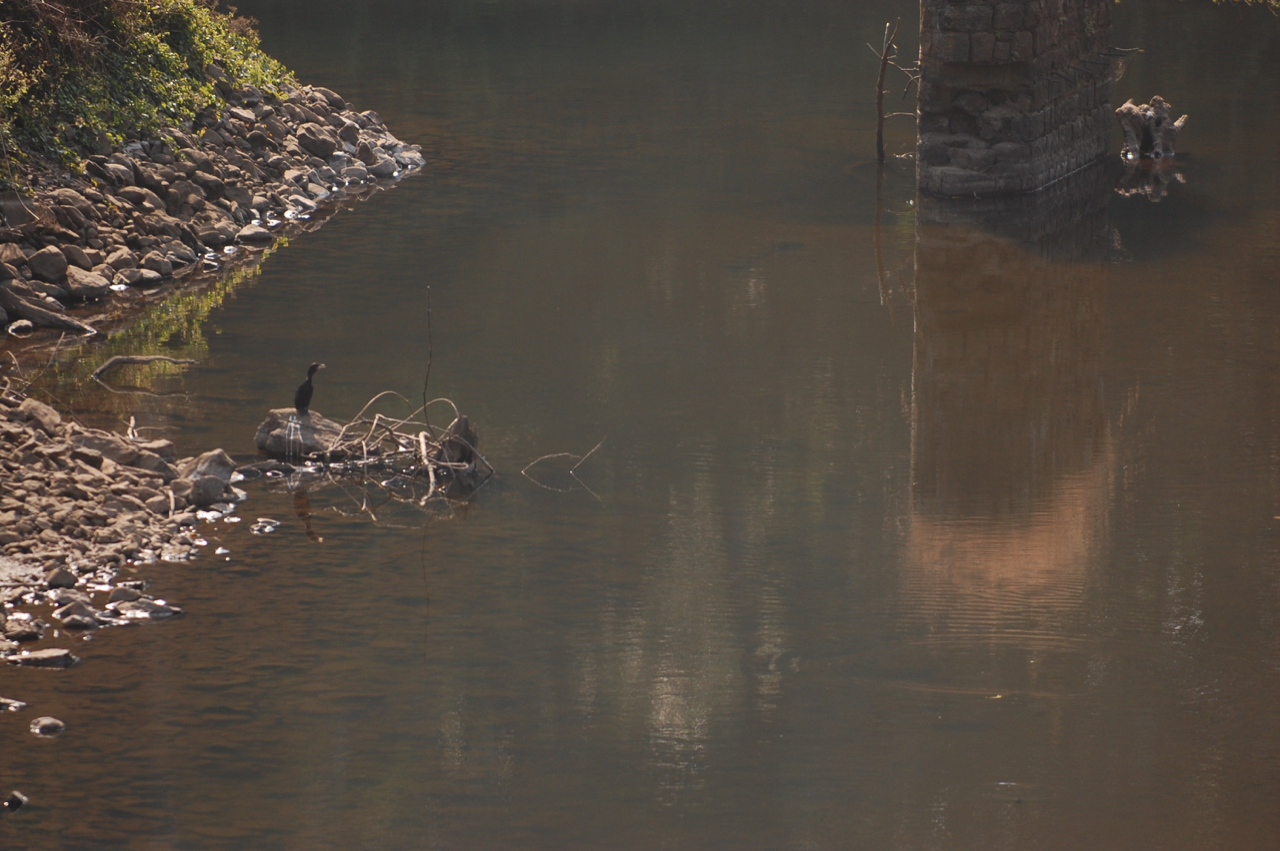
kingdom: Animalia
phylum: Chordata
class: Aves
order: Suliformes
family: Phalacrocoracidae
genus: Microcarbo
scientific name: Microcarbo niger
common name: Little cormorant
